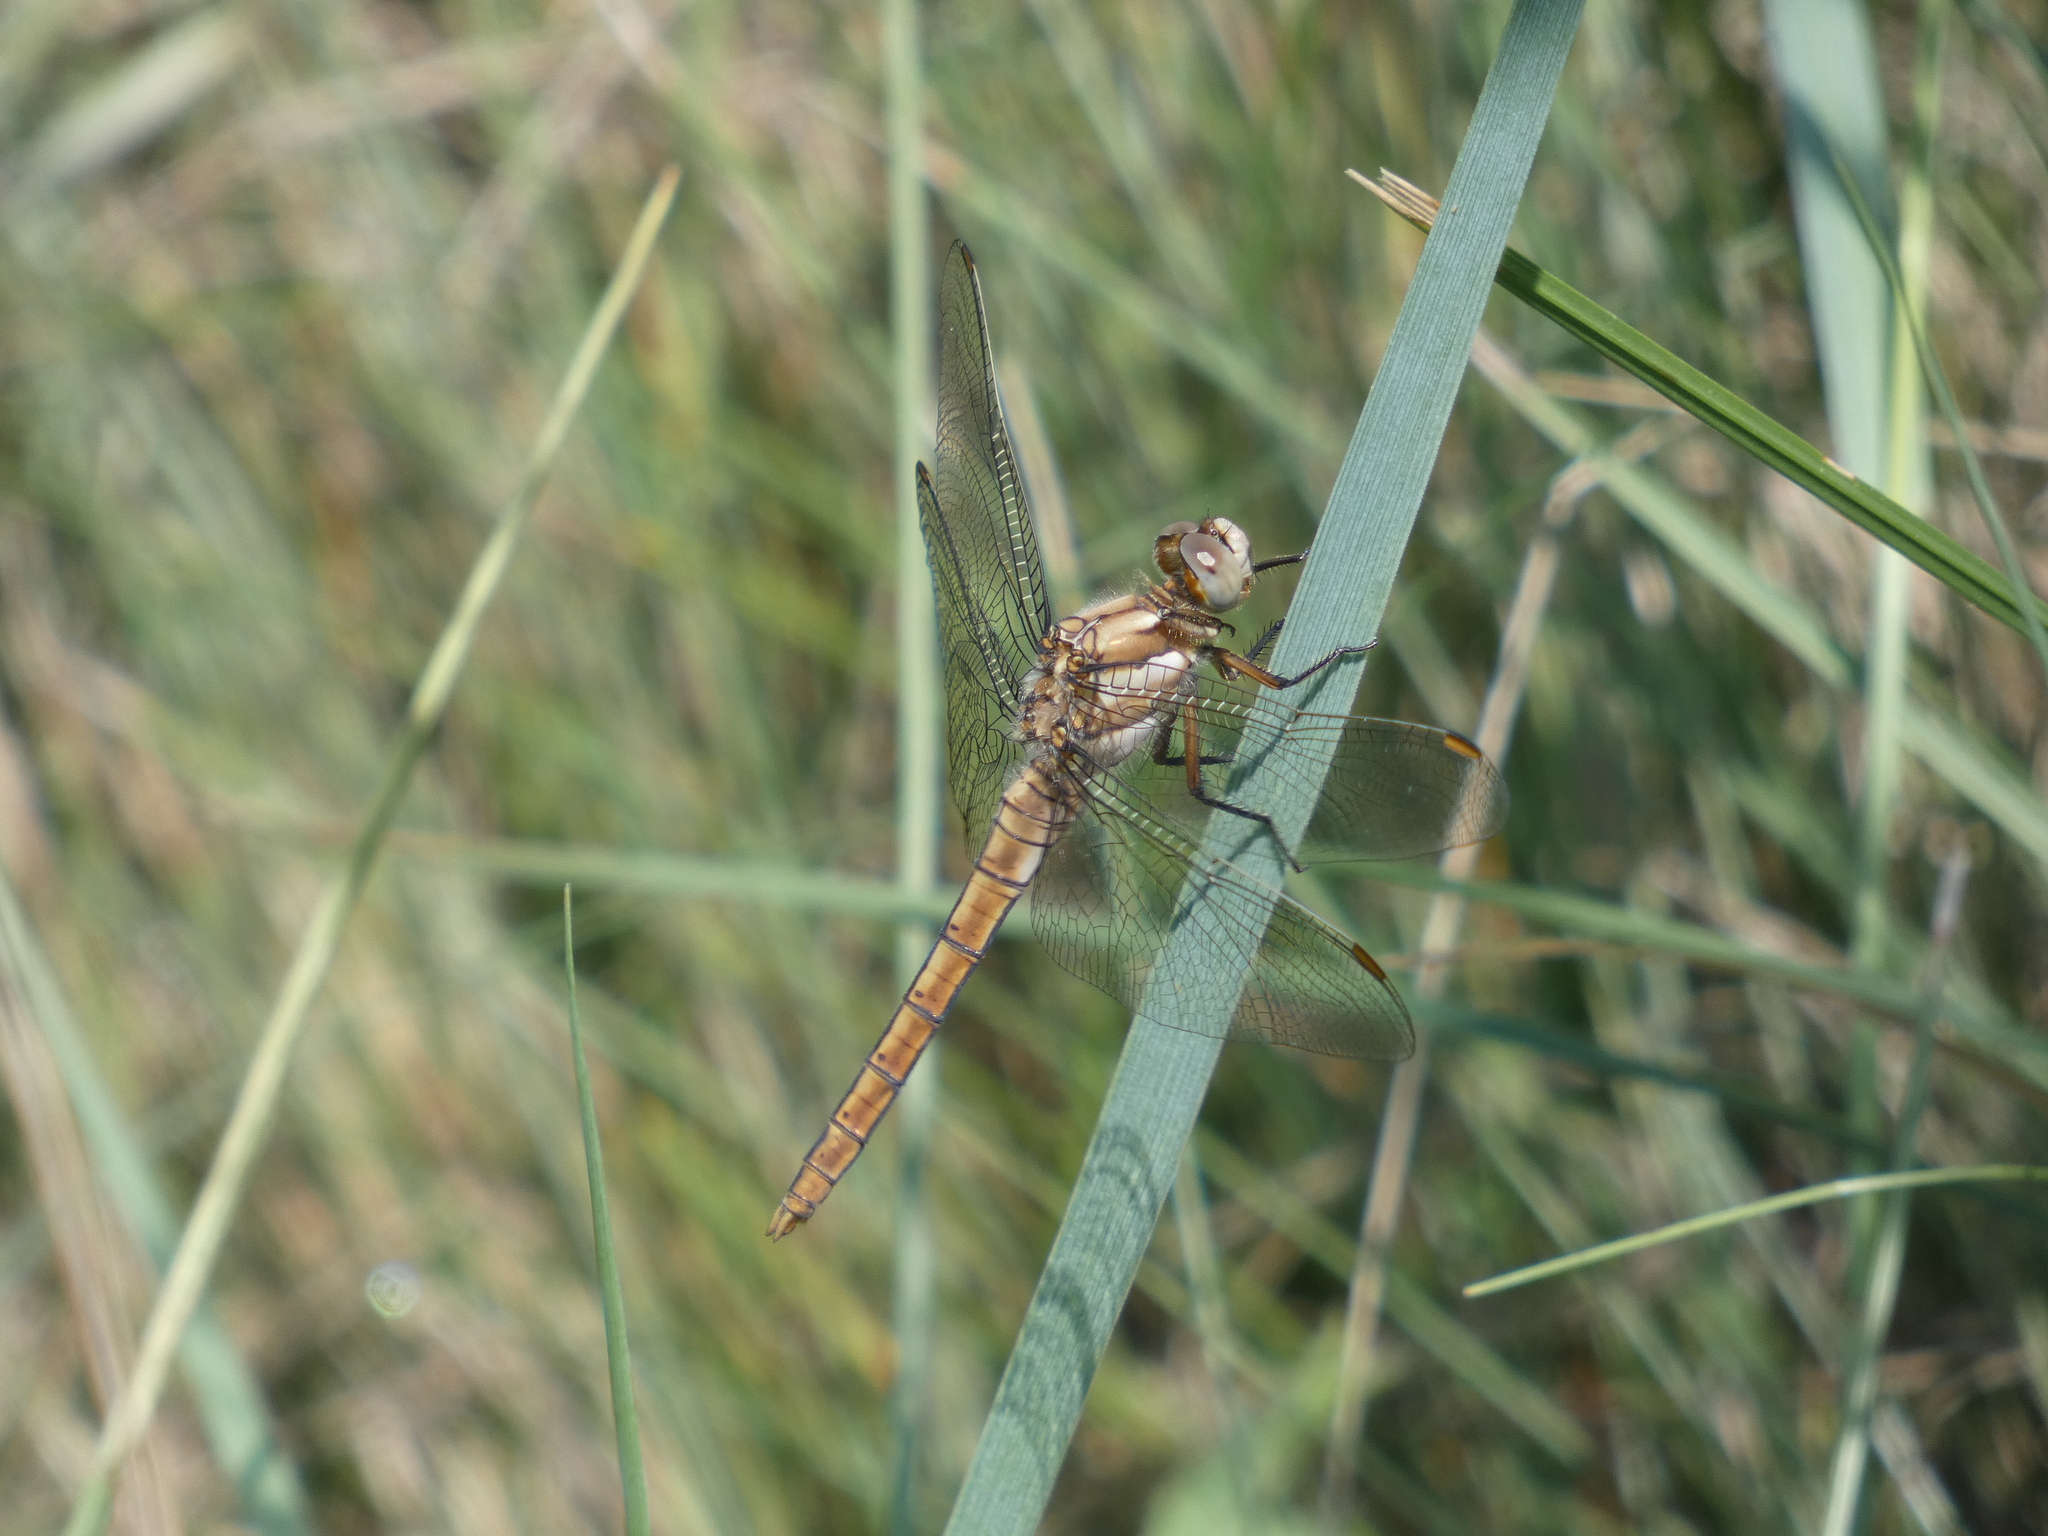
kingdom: Animalia
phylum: Arthropoda
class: Insecta
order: Odonata
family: Libellulidae
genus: Orthetrum
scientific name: Orthetrum brunneum
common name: Southern skimmer
